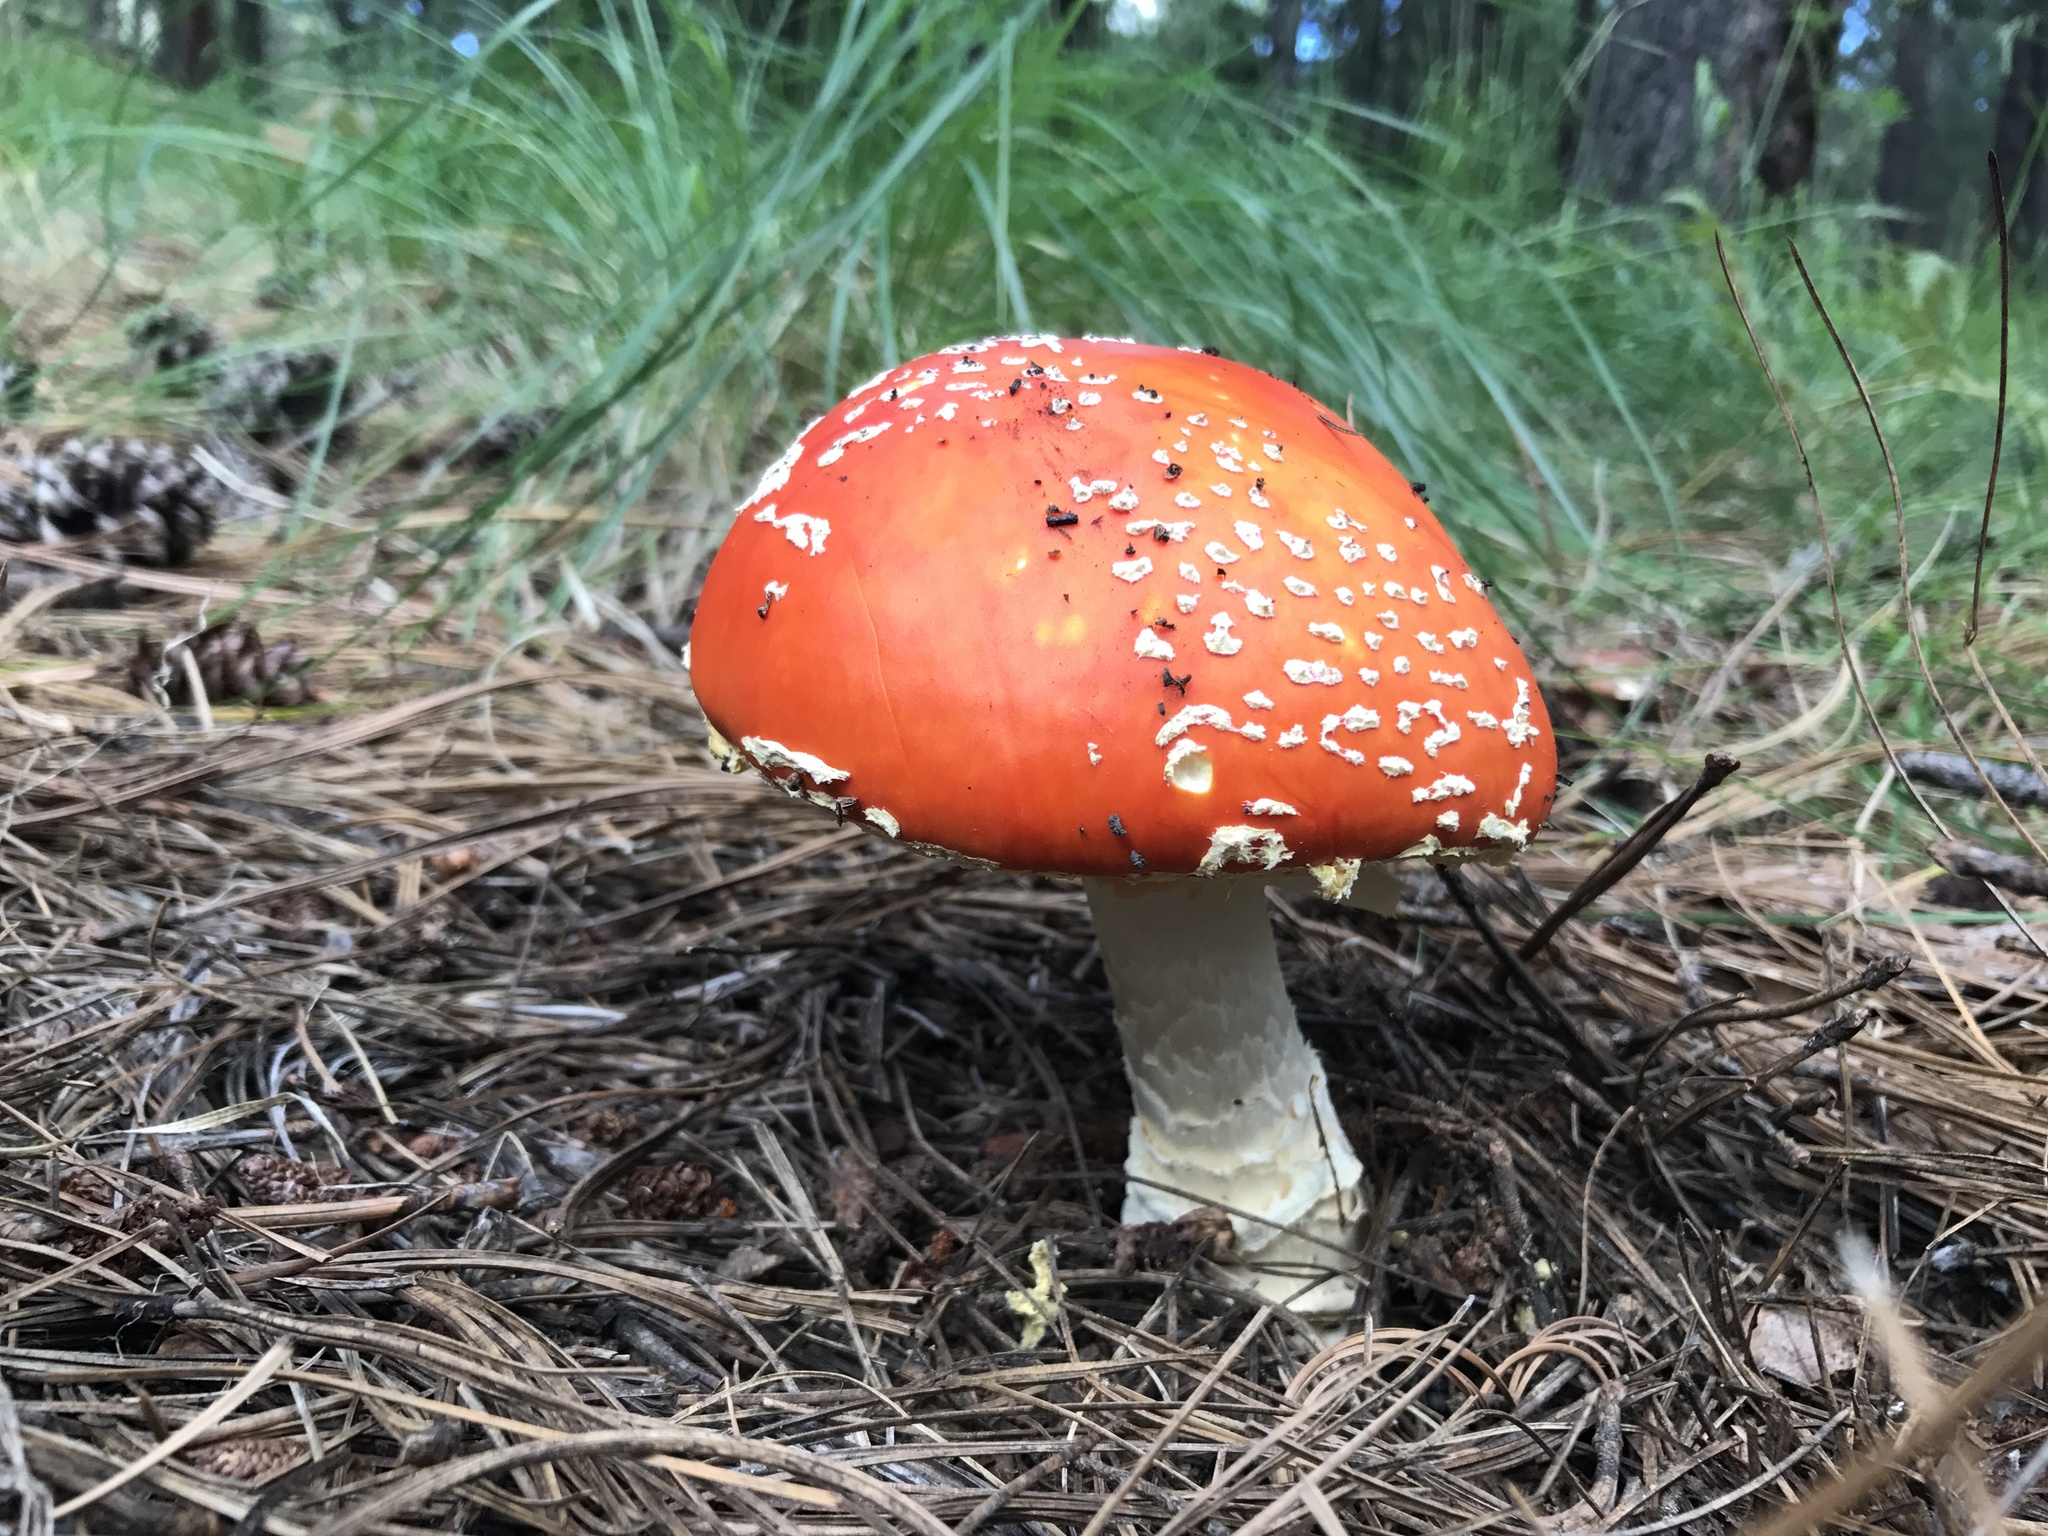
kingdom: Fungi
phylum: Basidiomycota
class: Agaricomycetes
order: Agaricales
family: Amanitaceae
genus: Amanita
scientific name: Amanita muscaria
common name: Fly agaric
